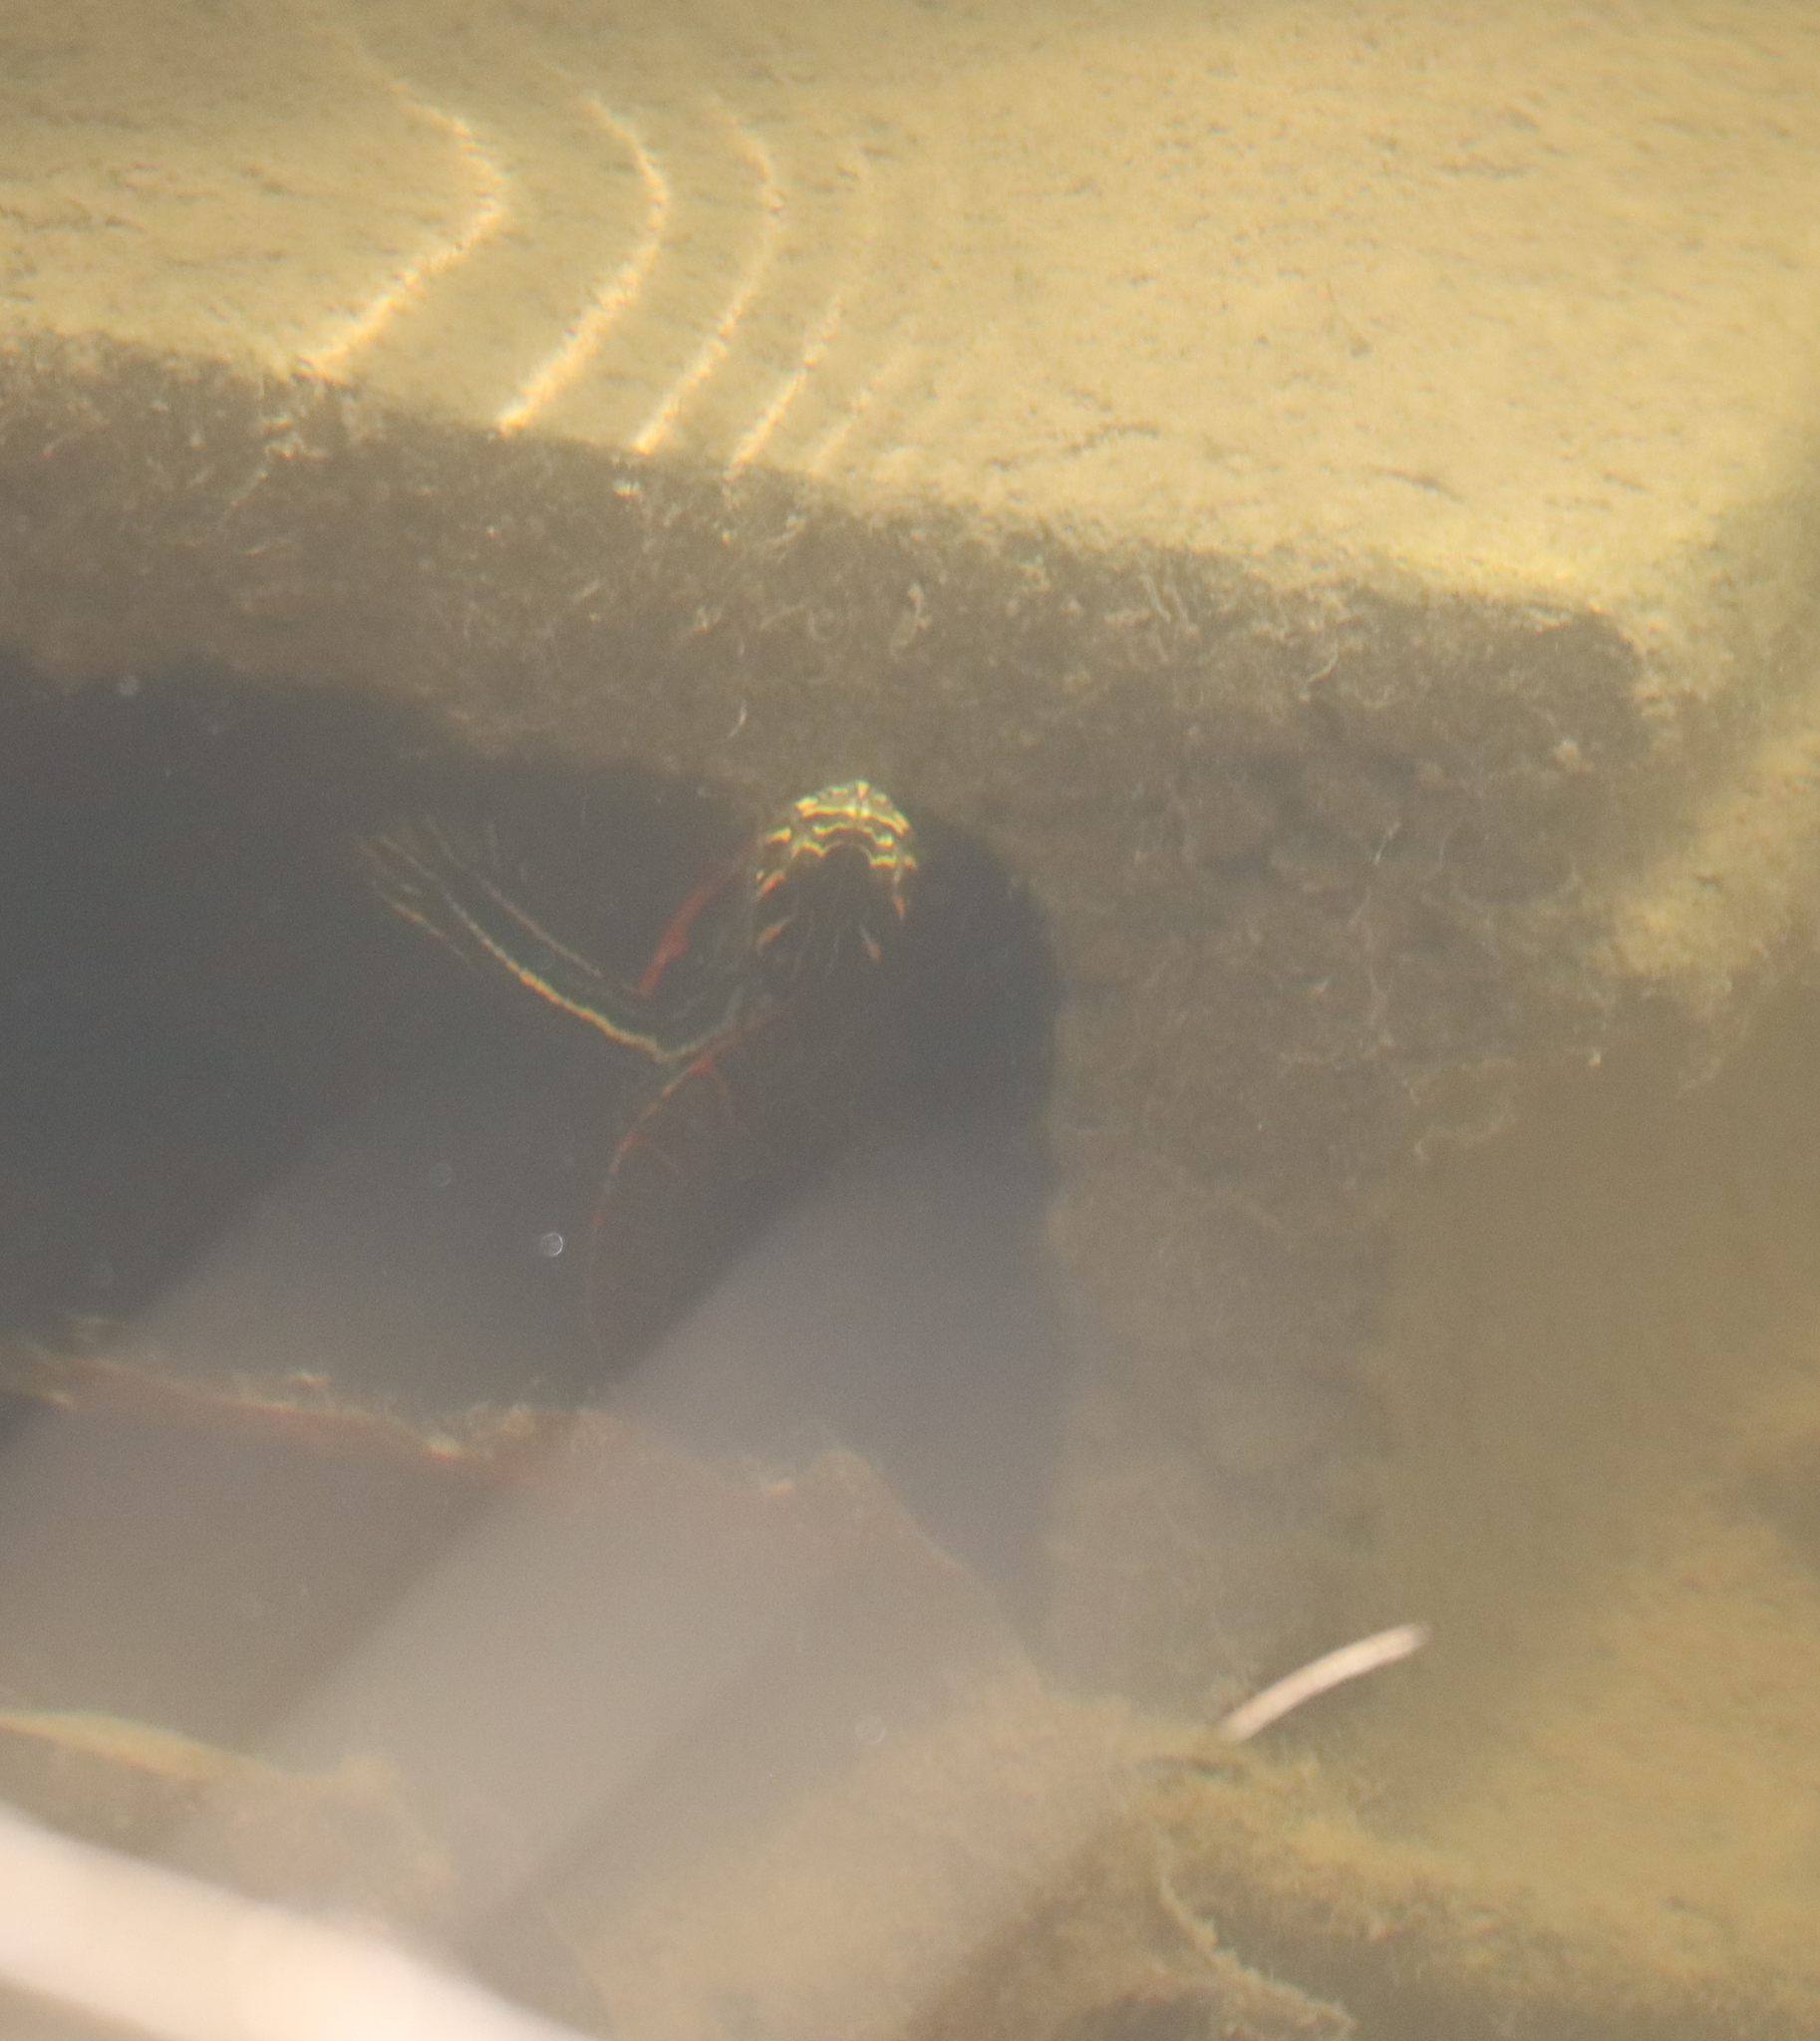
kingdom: Animalia
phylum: Chordata
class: Testudines
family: Emydidae
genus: Chrysemys
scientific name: Chrysemys picta
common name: Painted turtle
